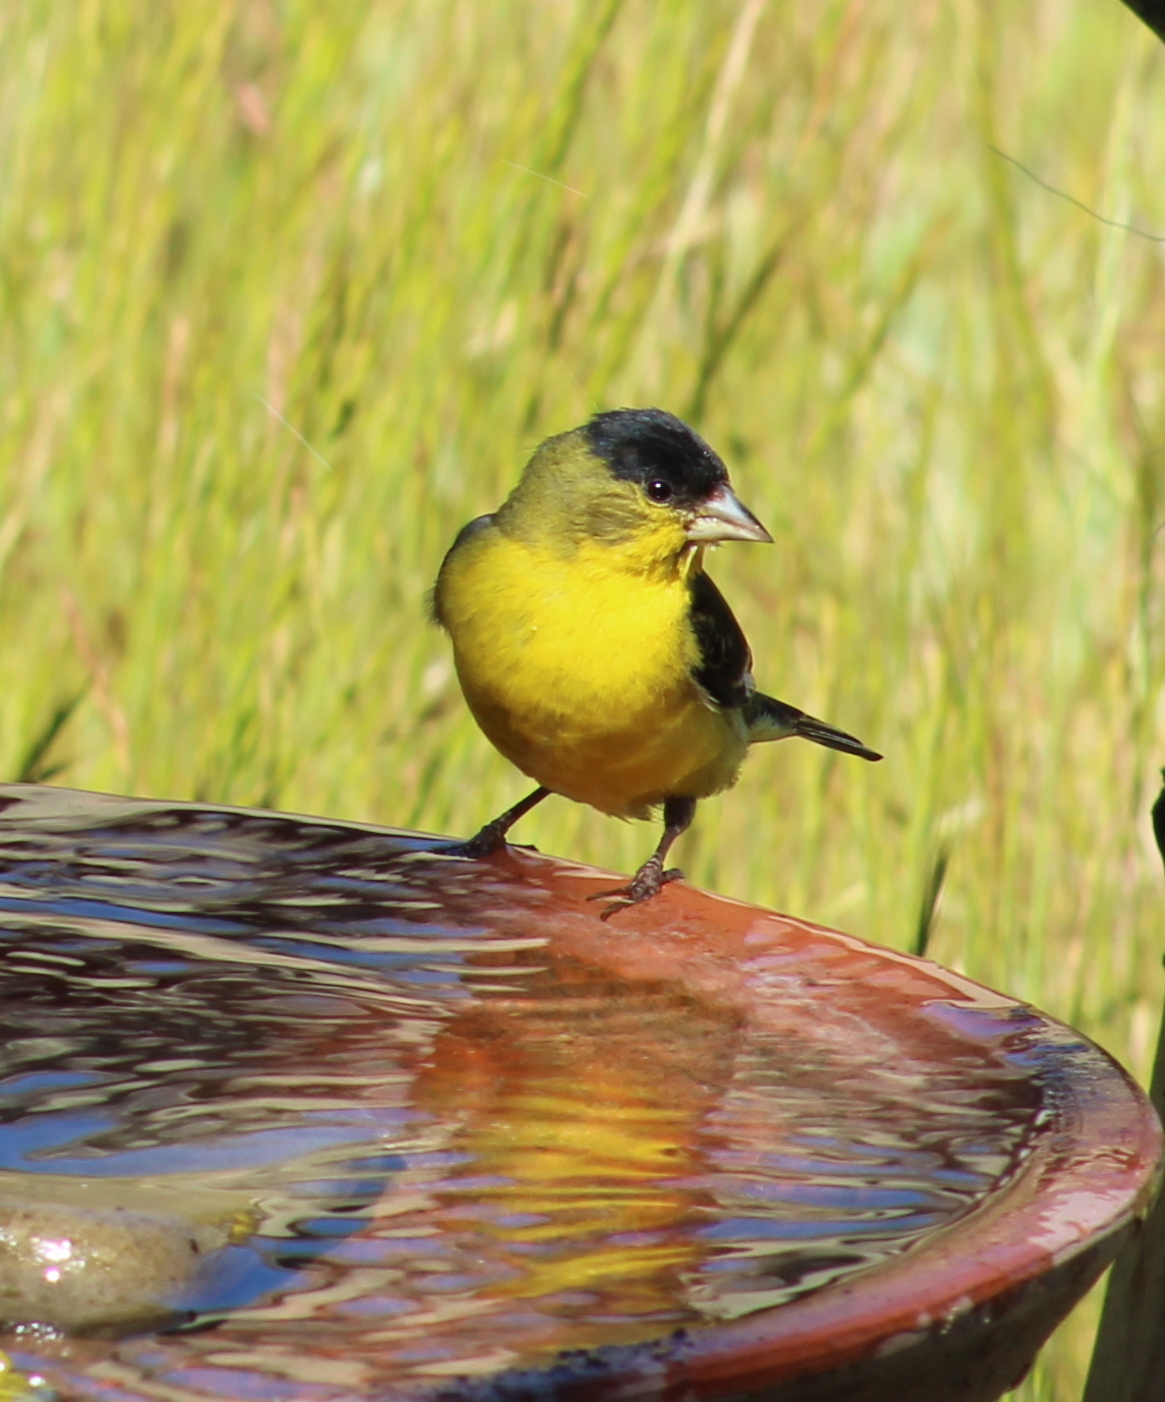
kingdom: Animalia
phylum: Chordata
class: Aves
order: Passeriformes
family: Fringillidae
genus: Spinus
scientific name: Spinus psaltria
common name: Lesser goldfinch
